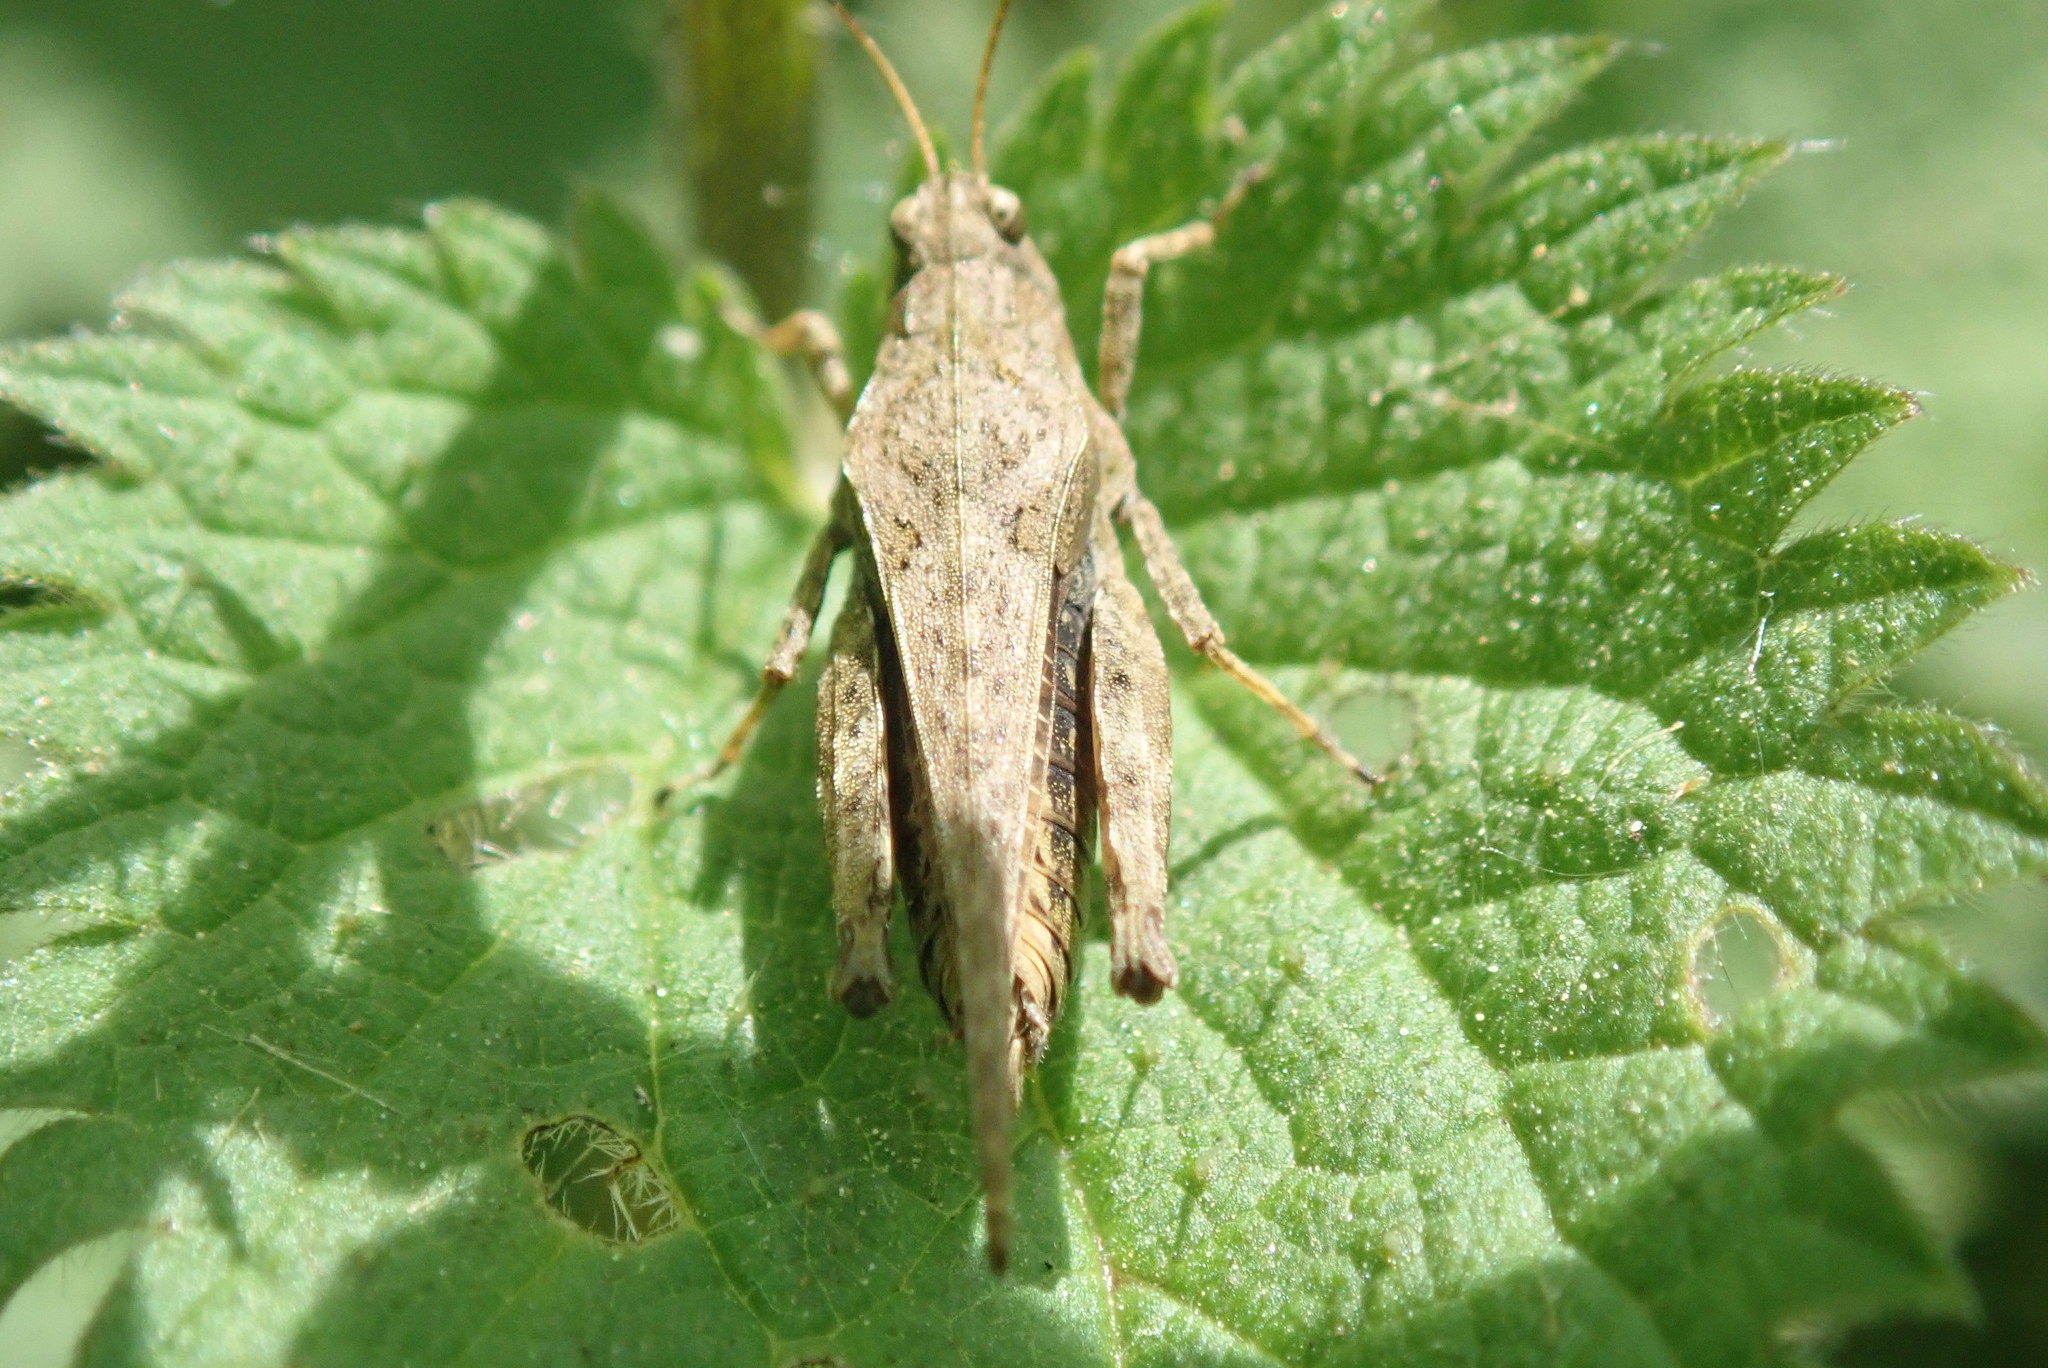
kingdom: Animalia
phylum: Arthropoda
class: Insecta
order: Orthoptera
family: Tetrigidae
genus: Tetrix
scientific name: Tetrix subulata
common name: Slender ground-hopper
